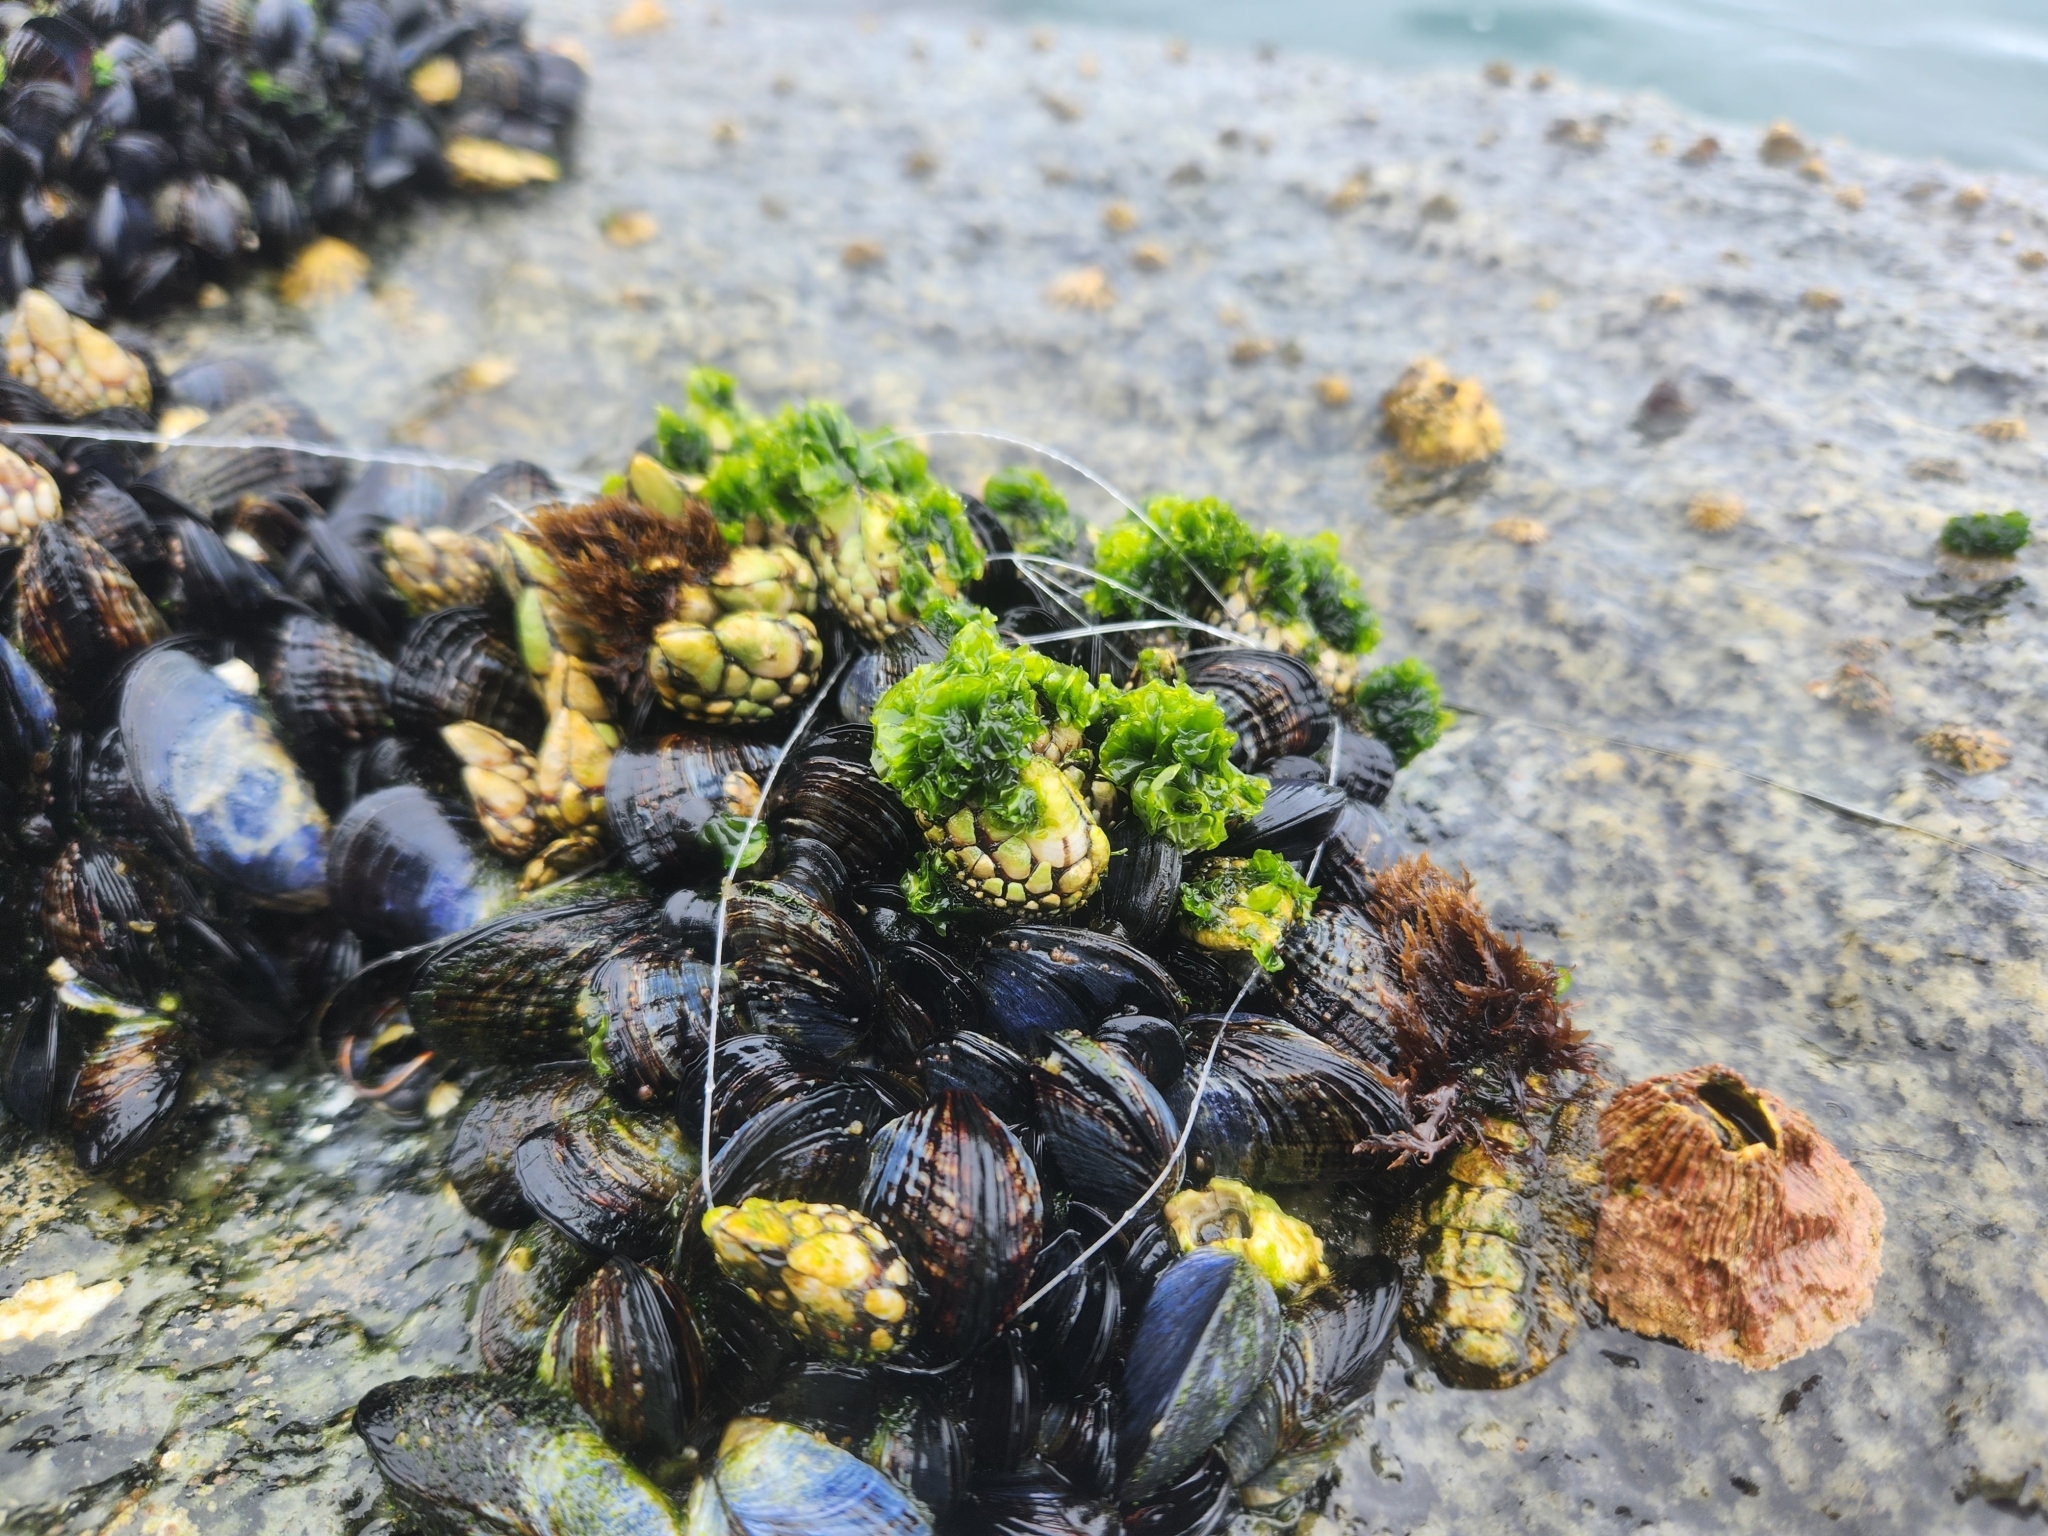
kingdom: Animalia
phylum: Mollusca
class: Bivalvia
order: Mytilida
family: Mytilidae
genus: Mytilus
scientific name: Mytilus californianus
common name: California mussel
